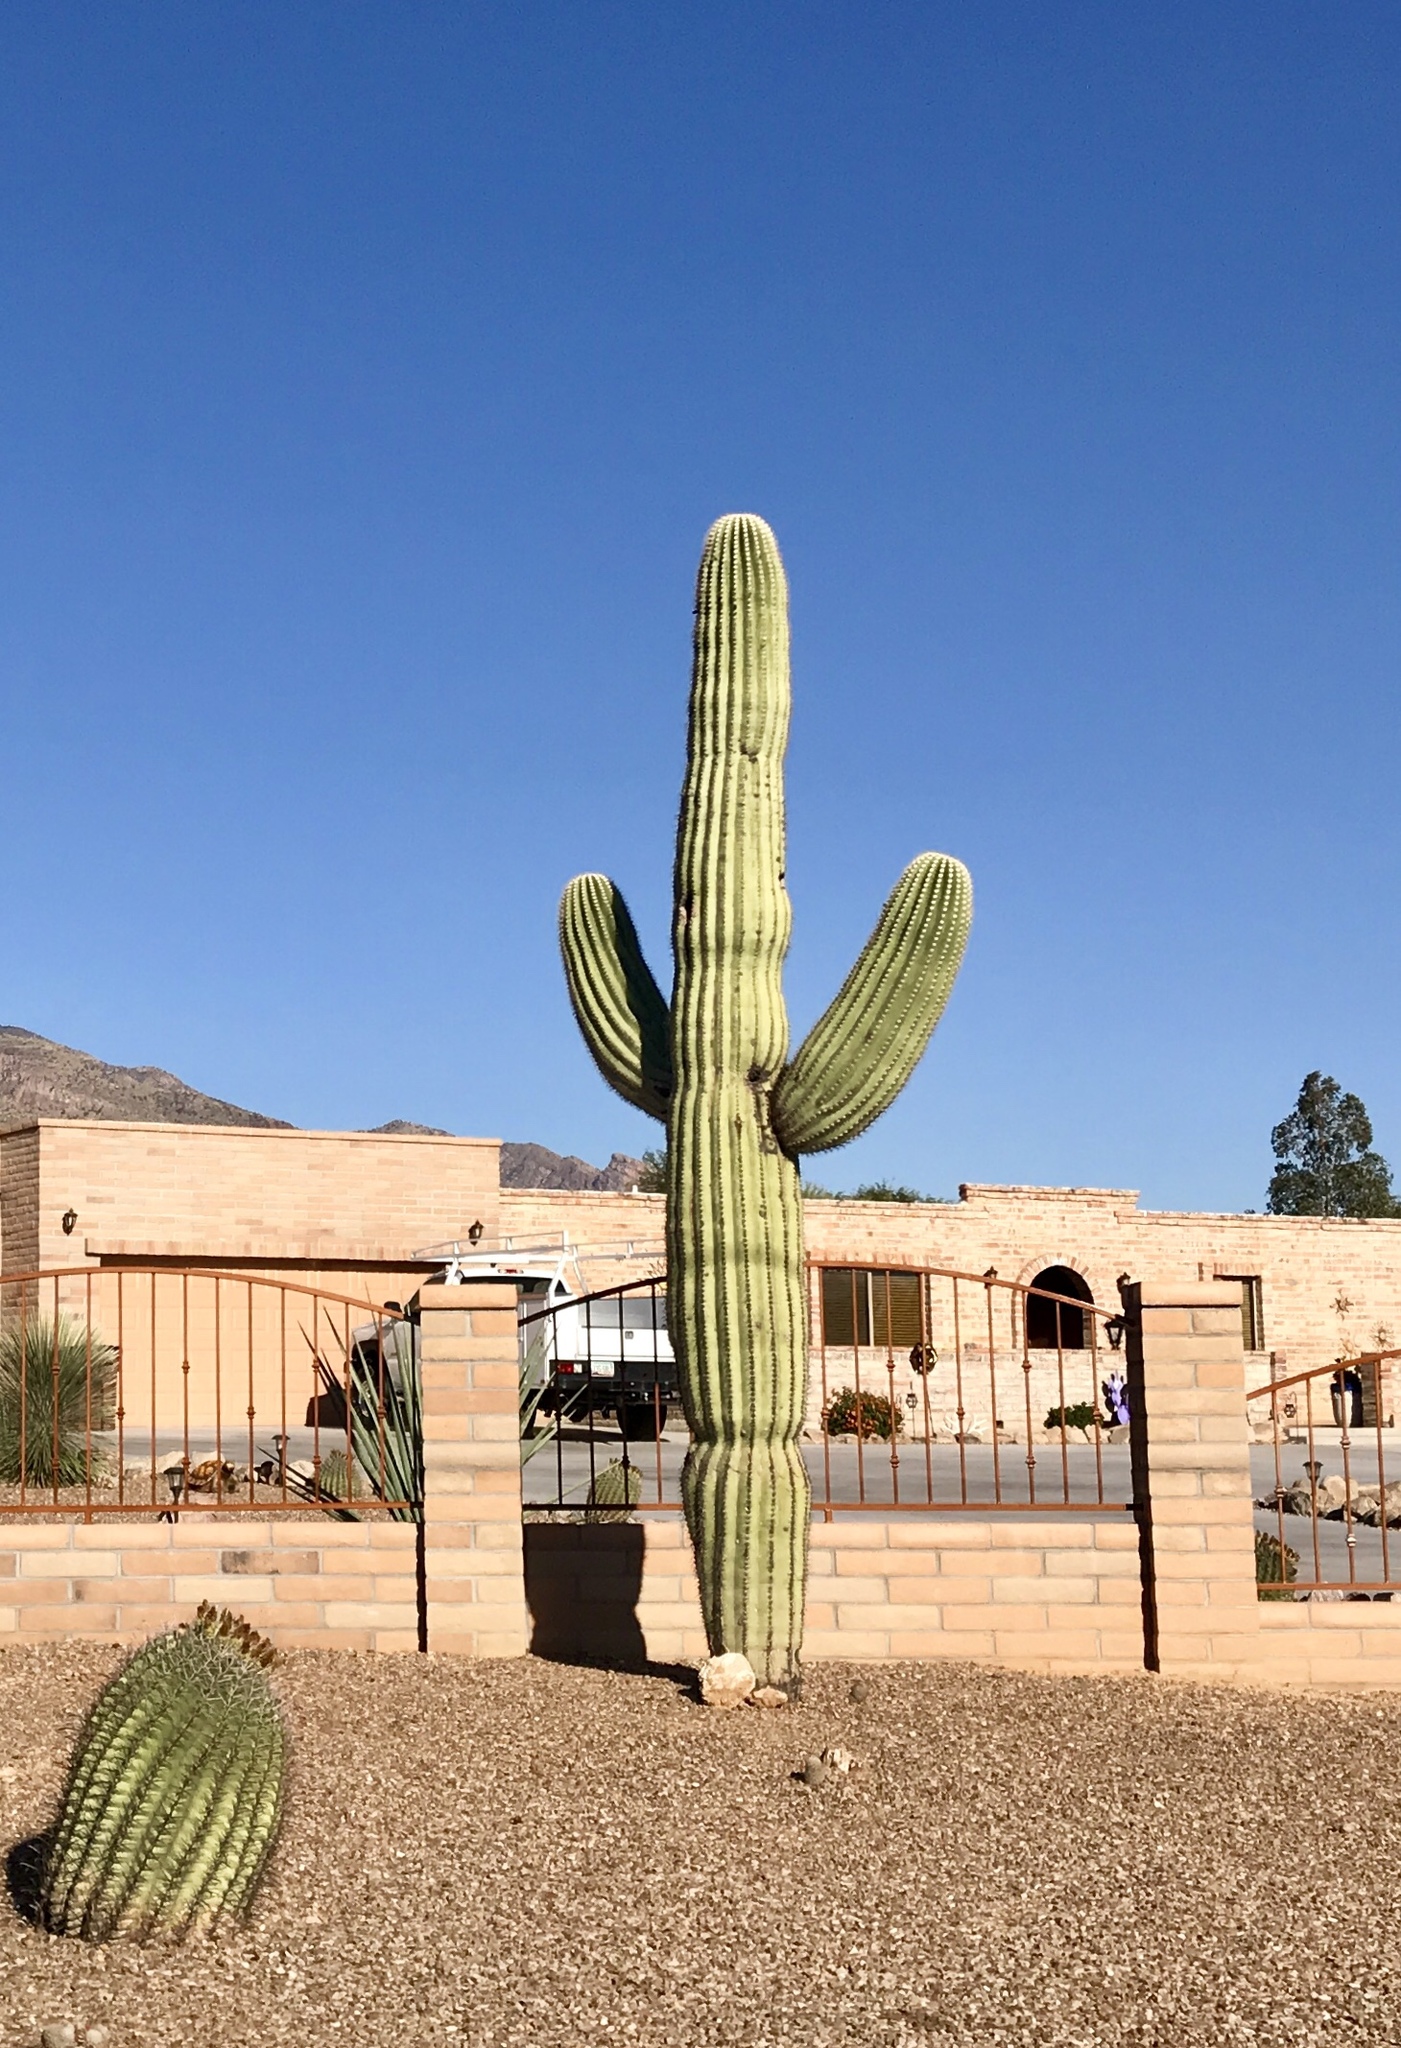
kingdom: Plantae
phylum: Tracheophyta
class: Magnoliopsida
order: Caryophyllales
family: Cactaceae
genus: Carnegiea
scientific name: Carnegiea gigantea
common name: Saguaro
